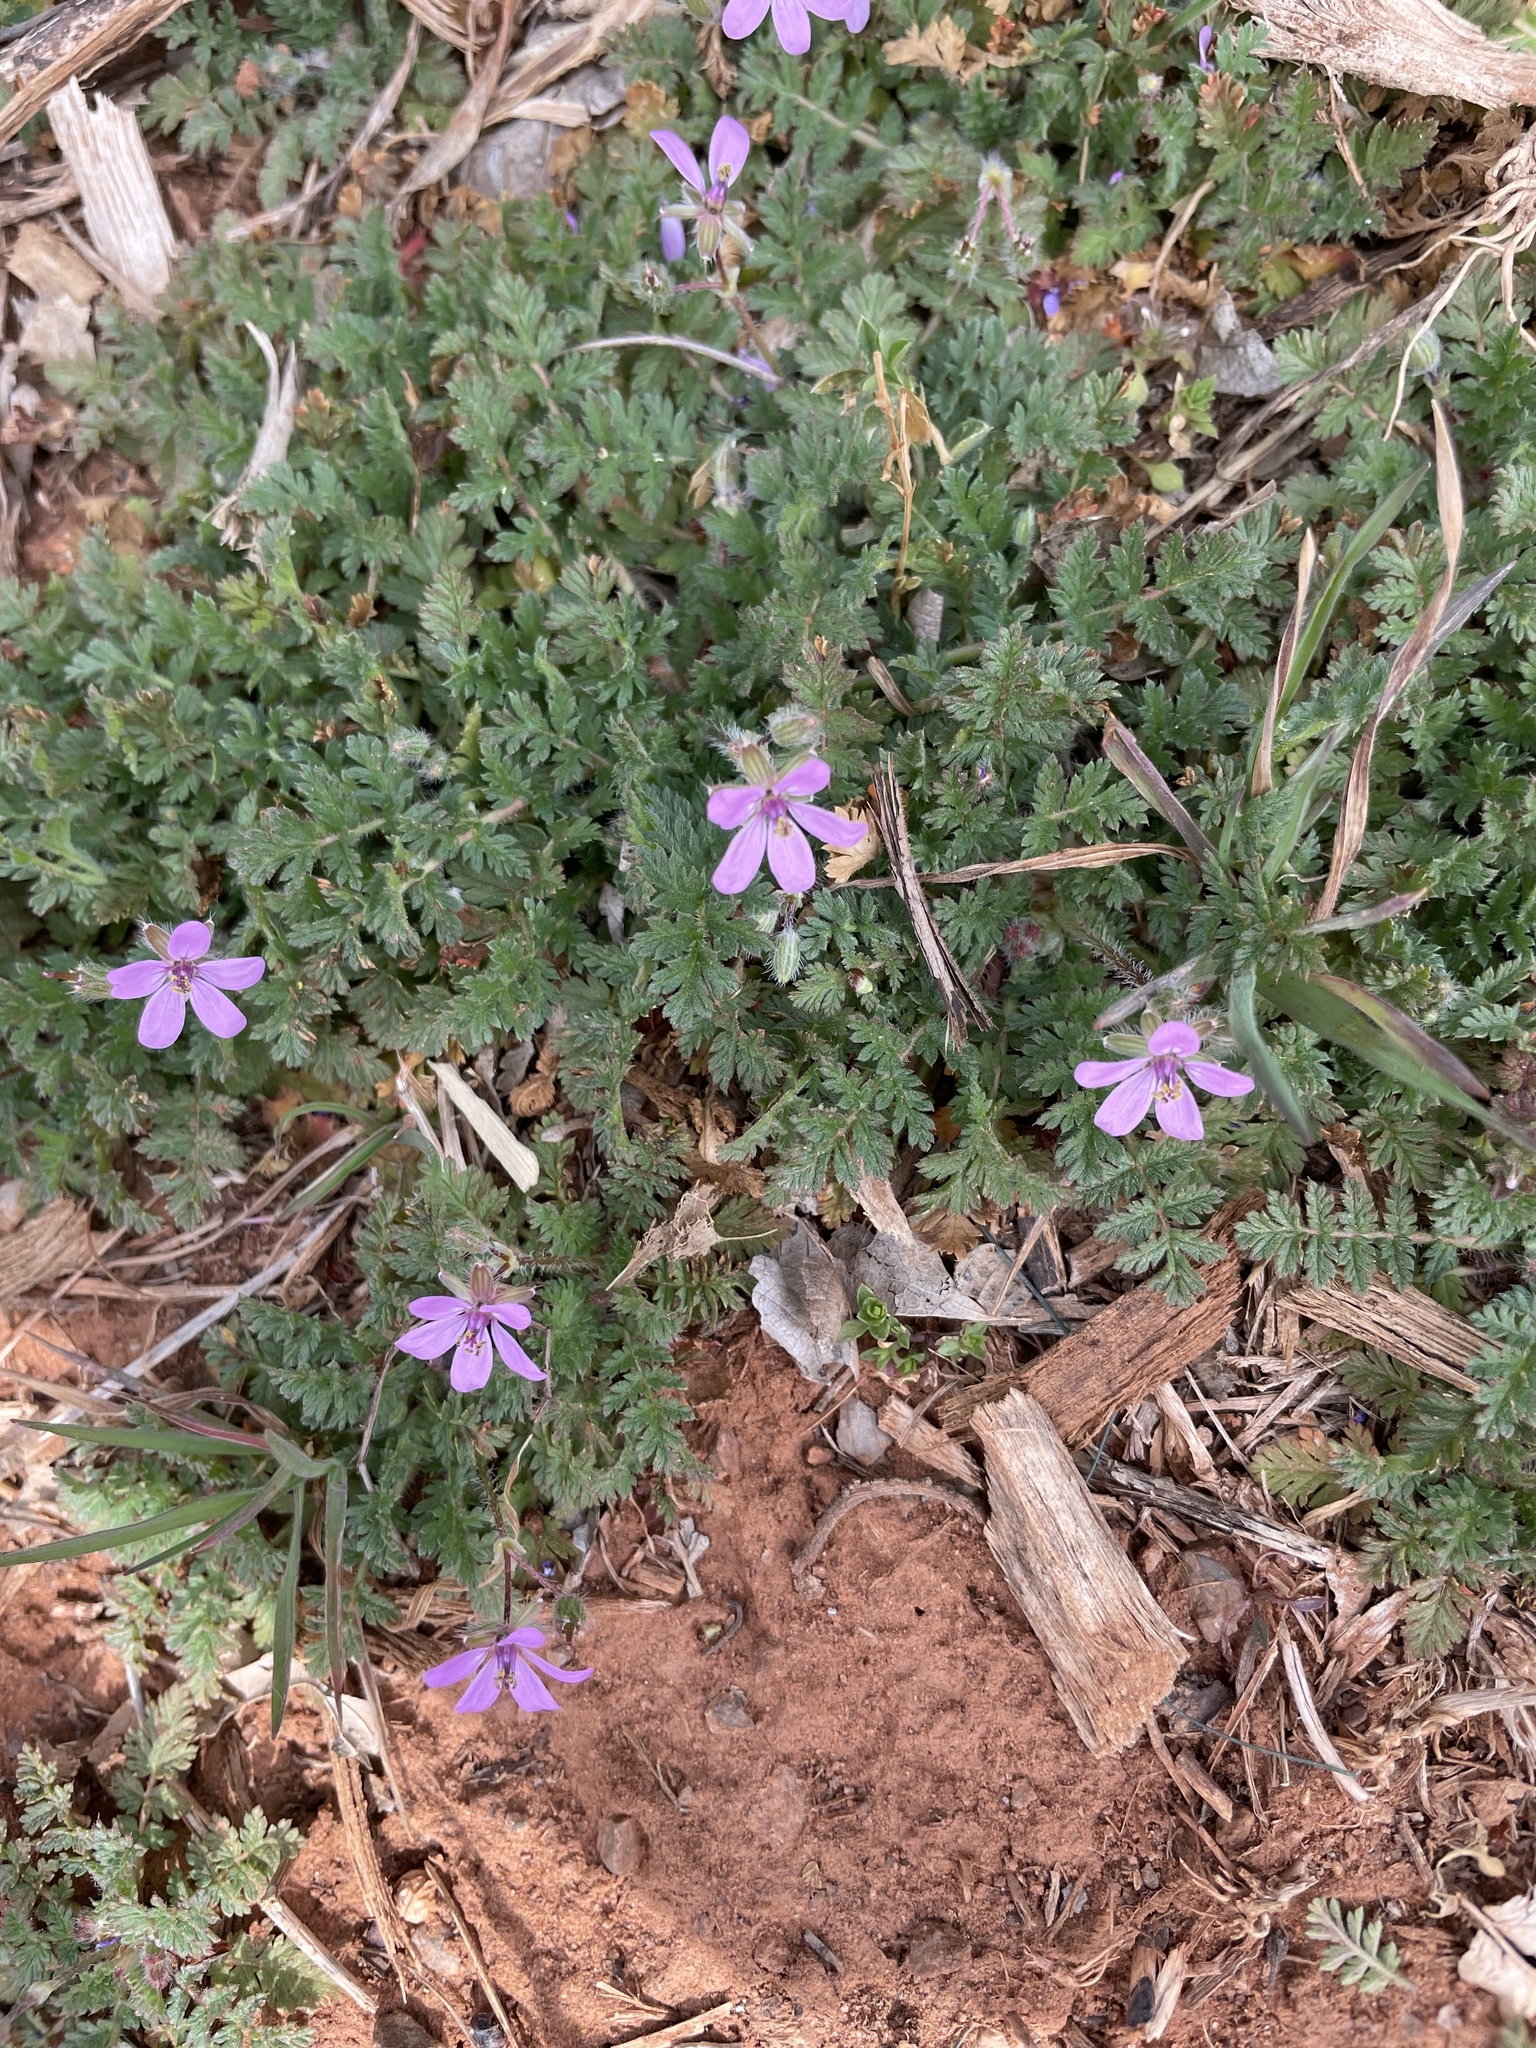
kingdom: Plantae
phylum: Tracheophyta
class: Magnoliopsida
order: Geraniales
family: Geraniaceae
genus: Erodium
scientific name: Erodium cicutarium
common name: Common stork's-bill
